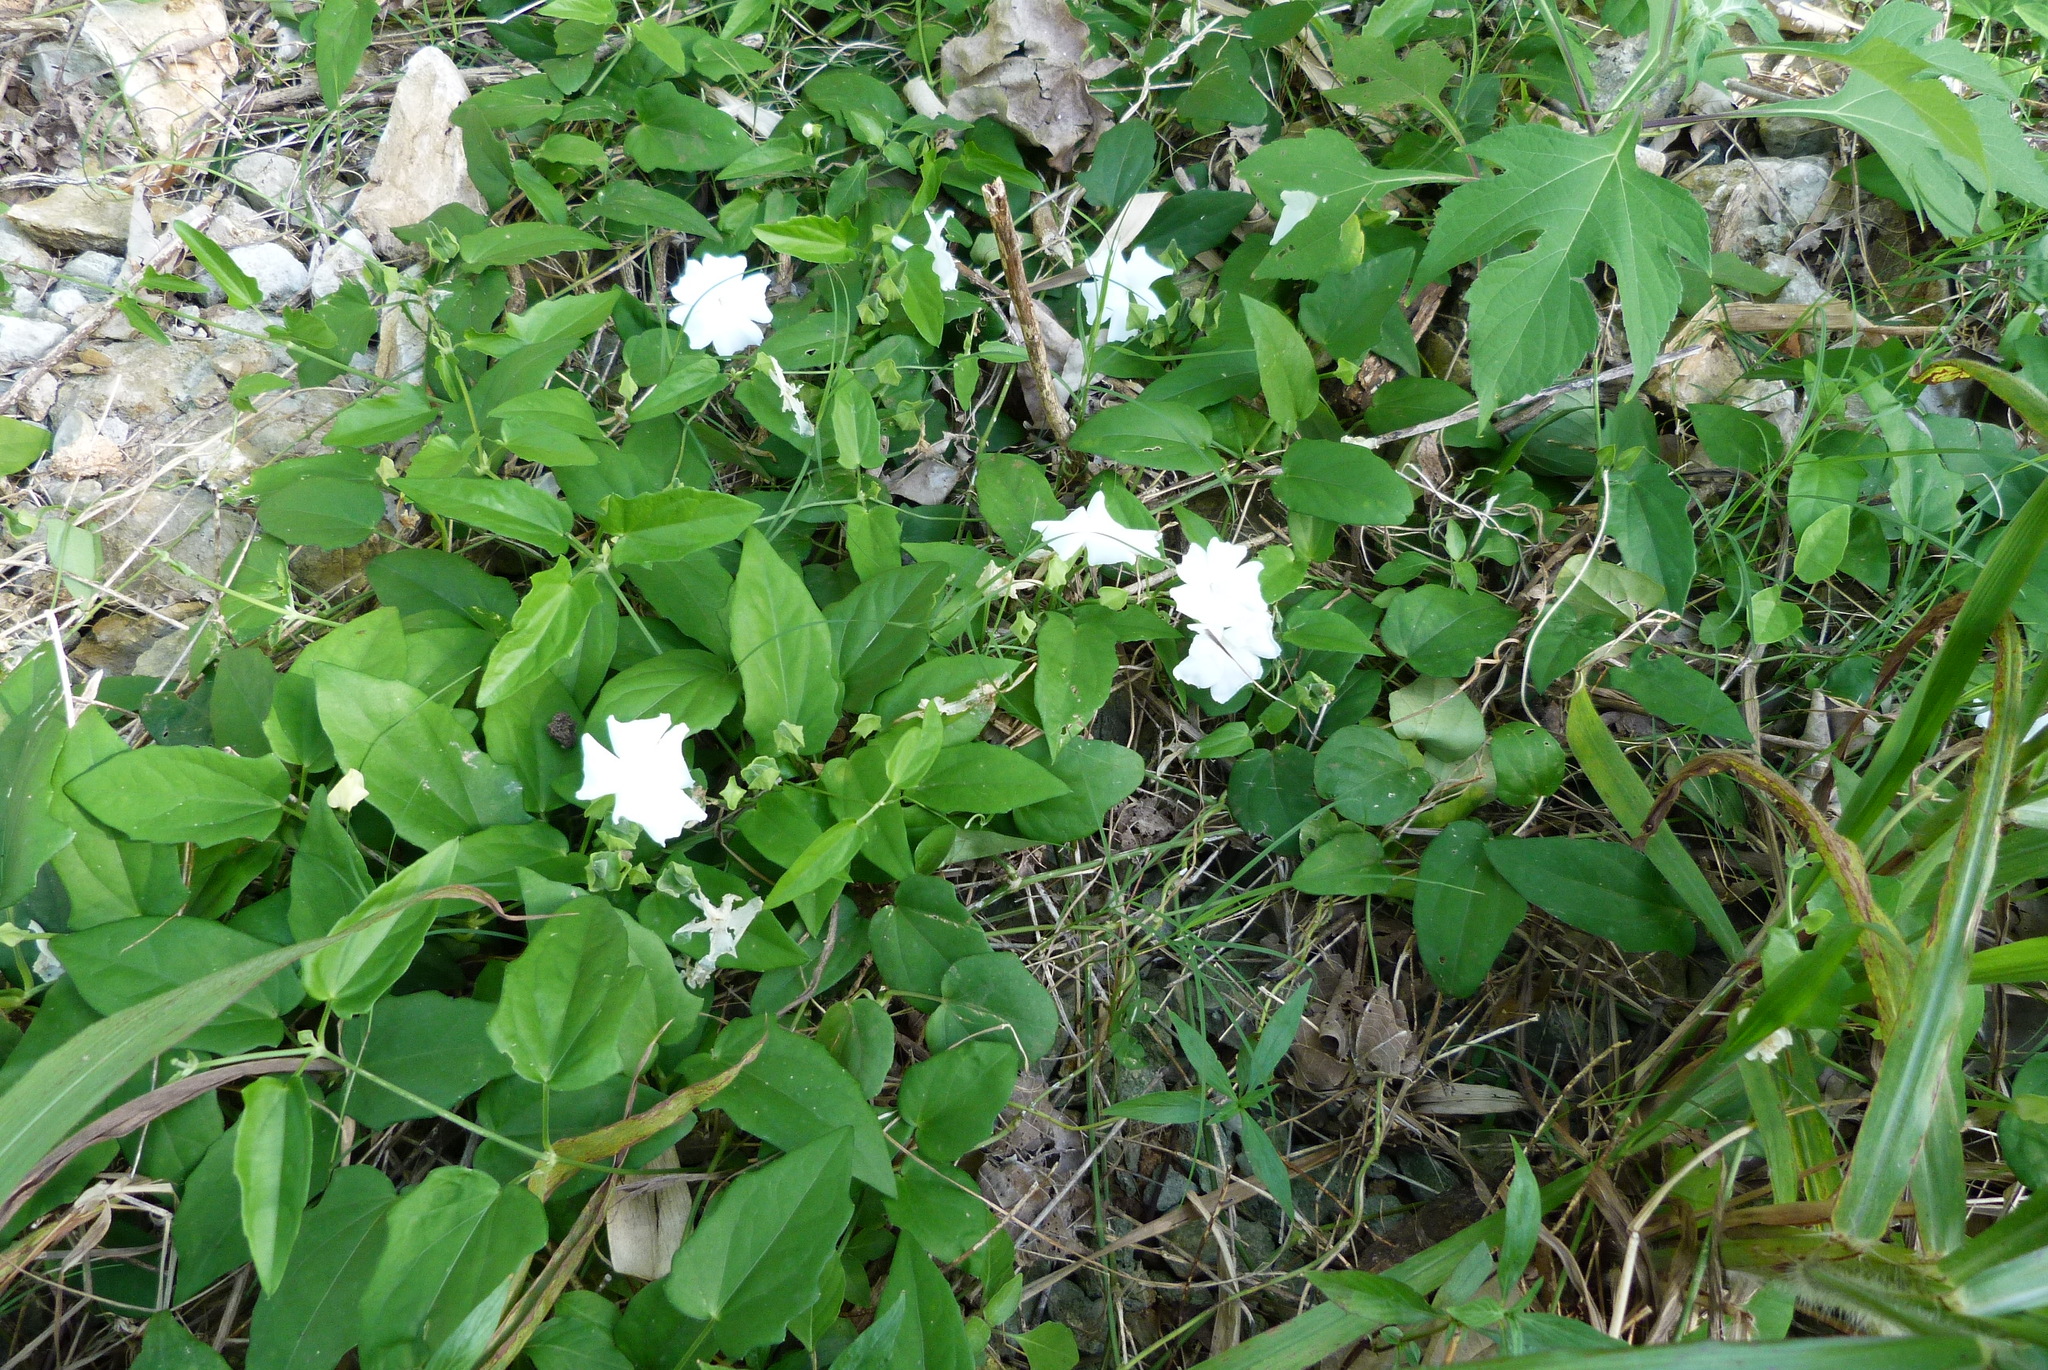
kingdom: Plantae
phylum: Tracheophyta
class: Magnoliopsida
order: Lamiales
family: Acanthaceae
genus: Thunbergia
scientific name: Thunbergia fragrans
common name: Whitelady
